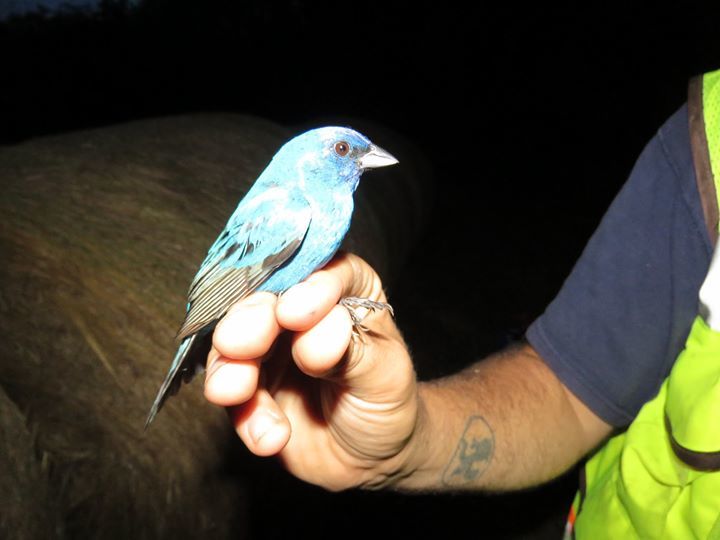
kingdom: Animalia
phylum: Chordata
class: Aves
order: Passeriformes
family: Cardinalidae
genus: Passerina
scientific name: Passerina cyanea
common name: Indigo bunting
